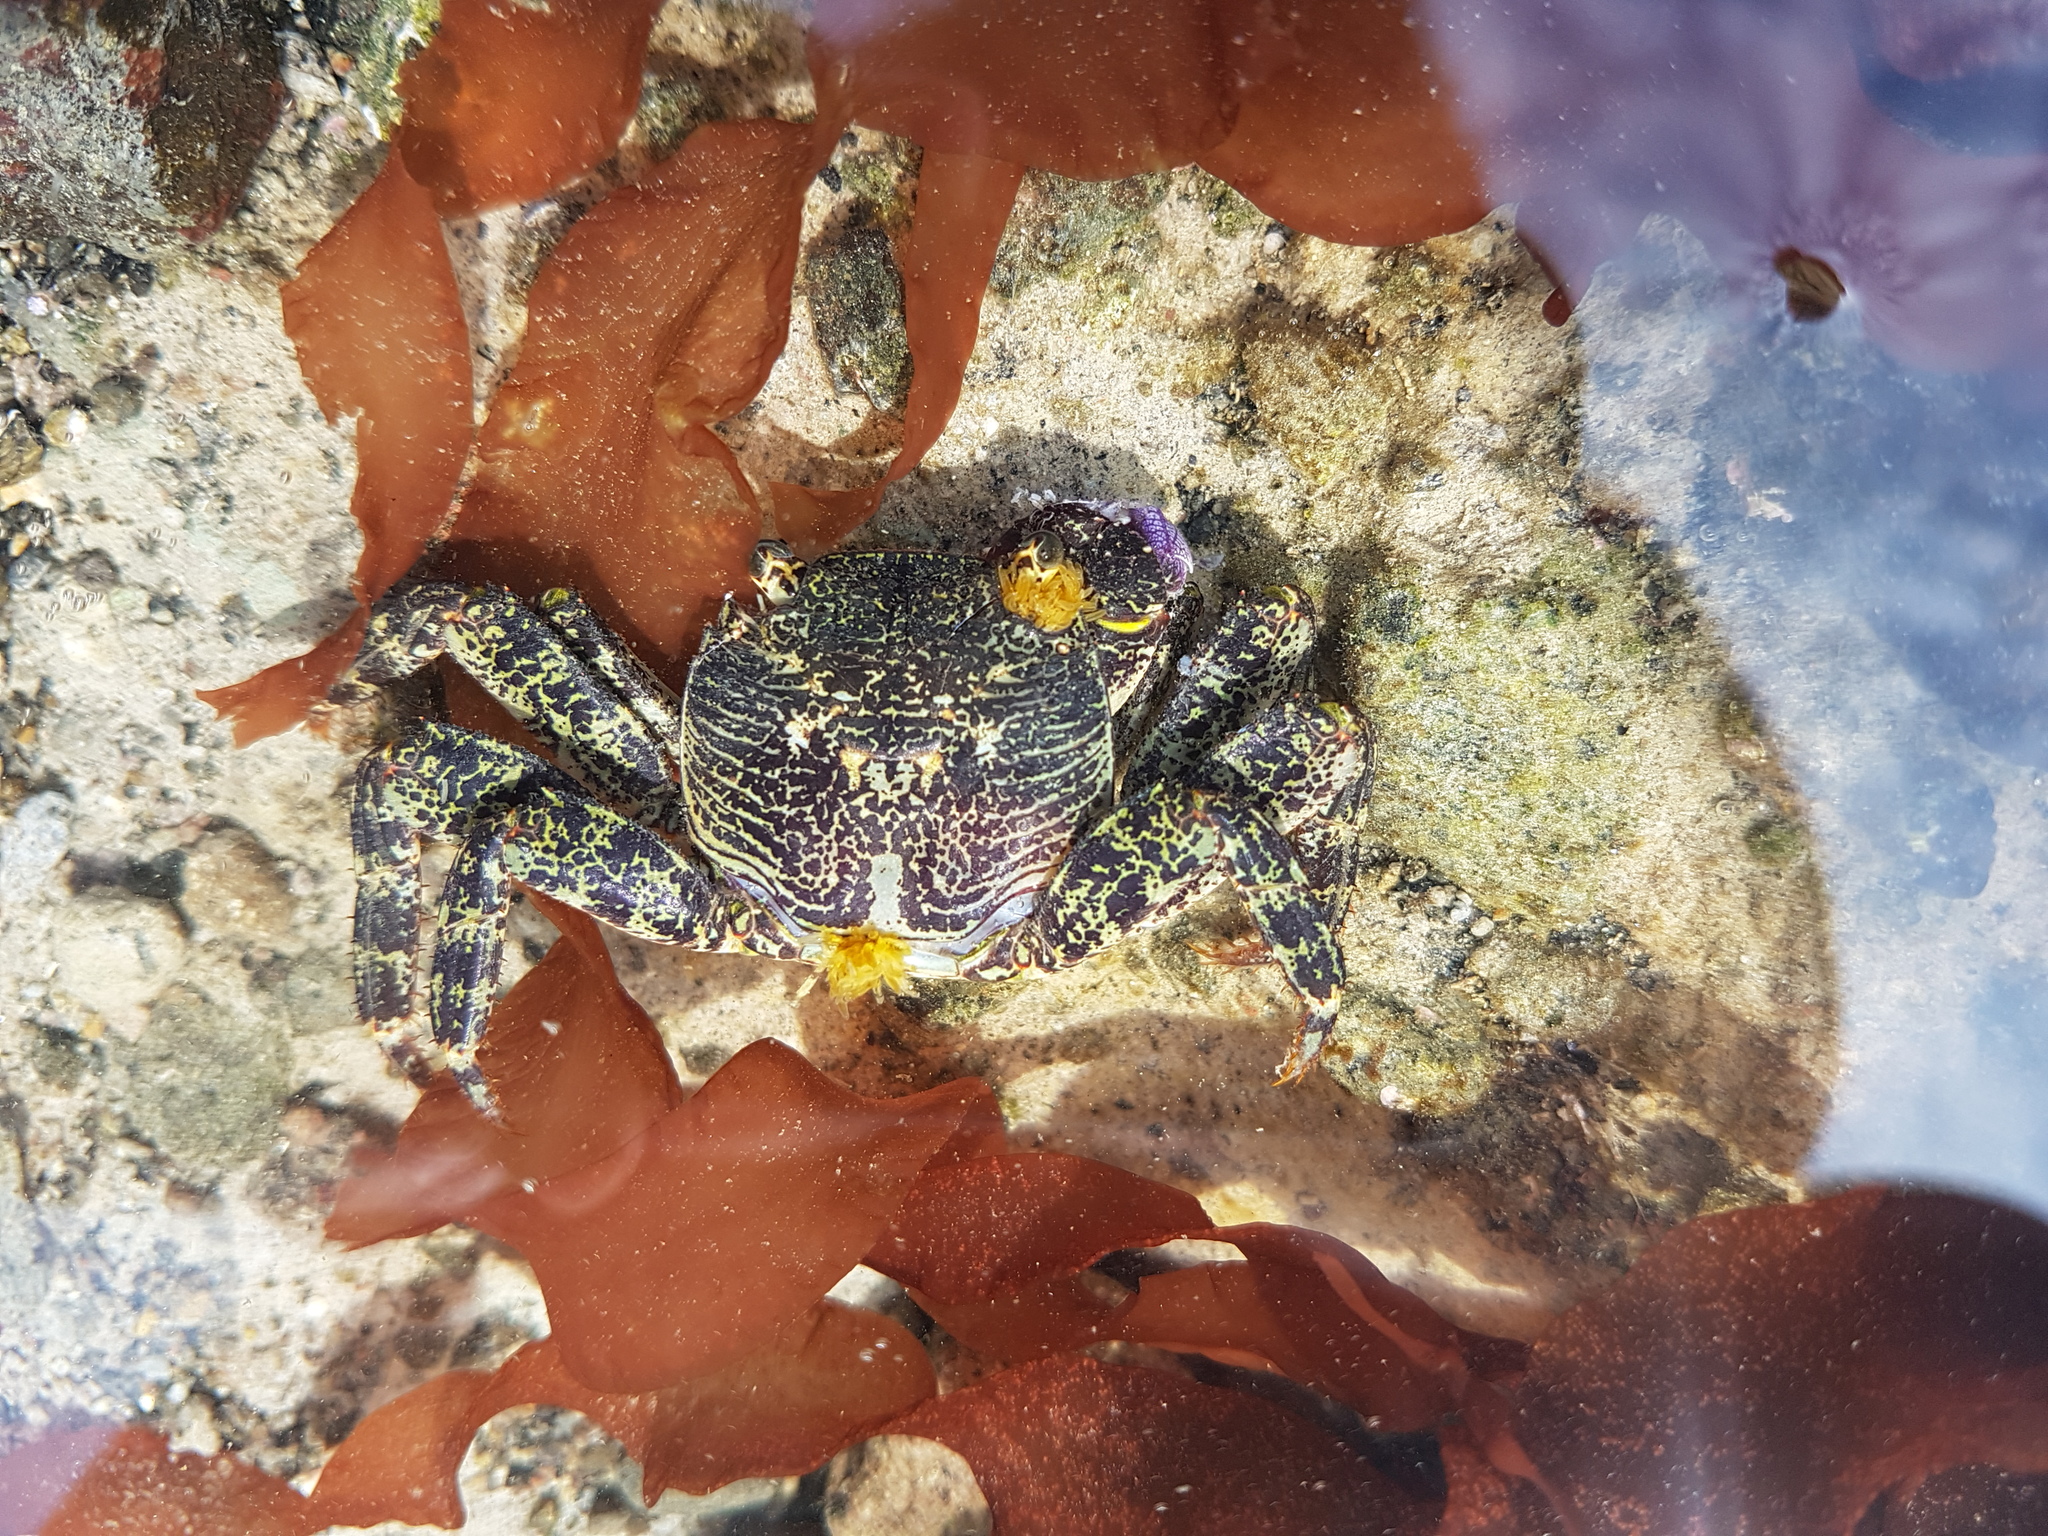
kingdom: Animalia
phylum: Arthropoda
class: Malacostraca
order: Decapoda
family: Grapsidae
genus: Leptograpsus
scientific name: Leptograpsus variegatus
